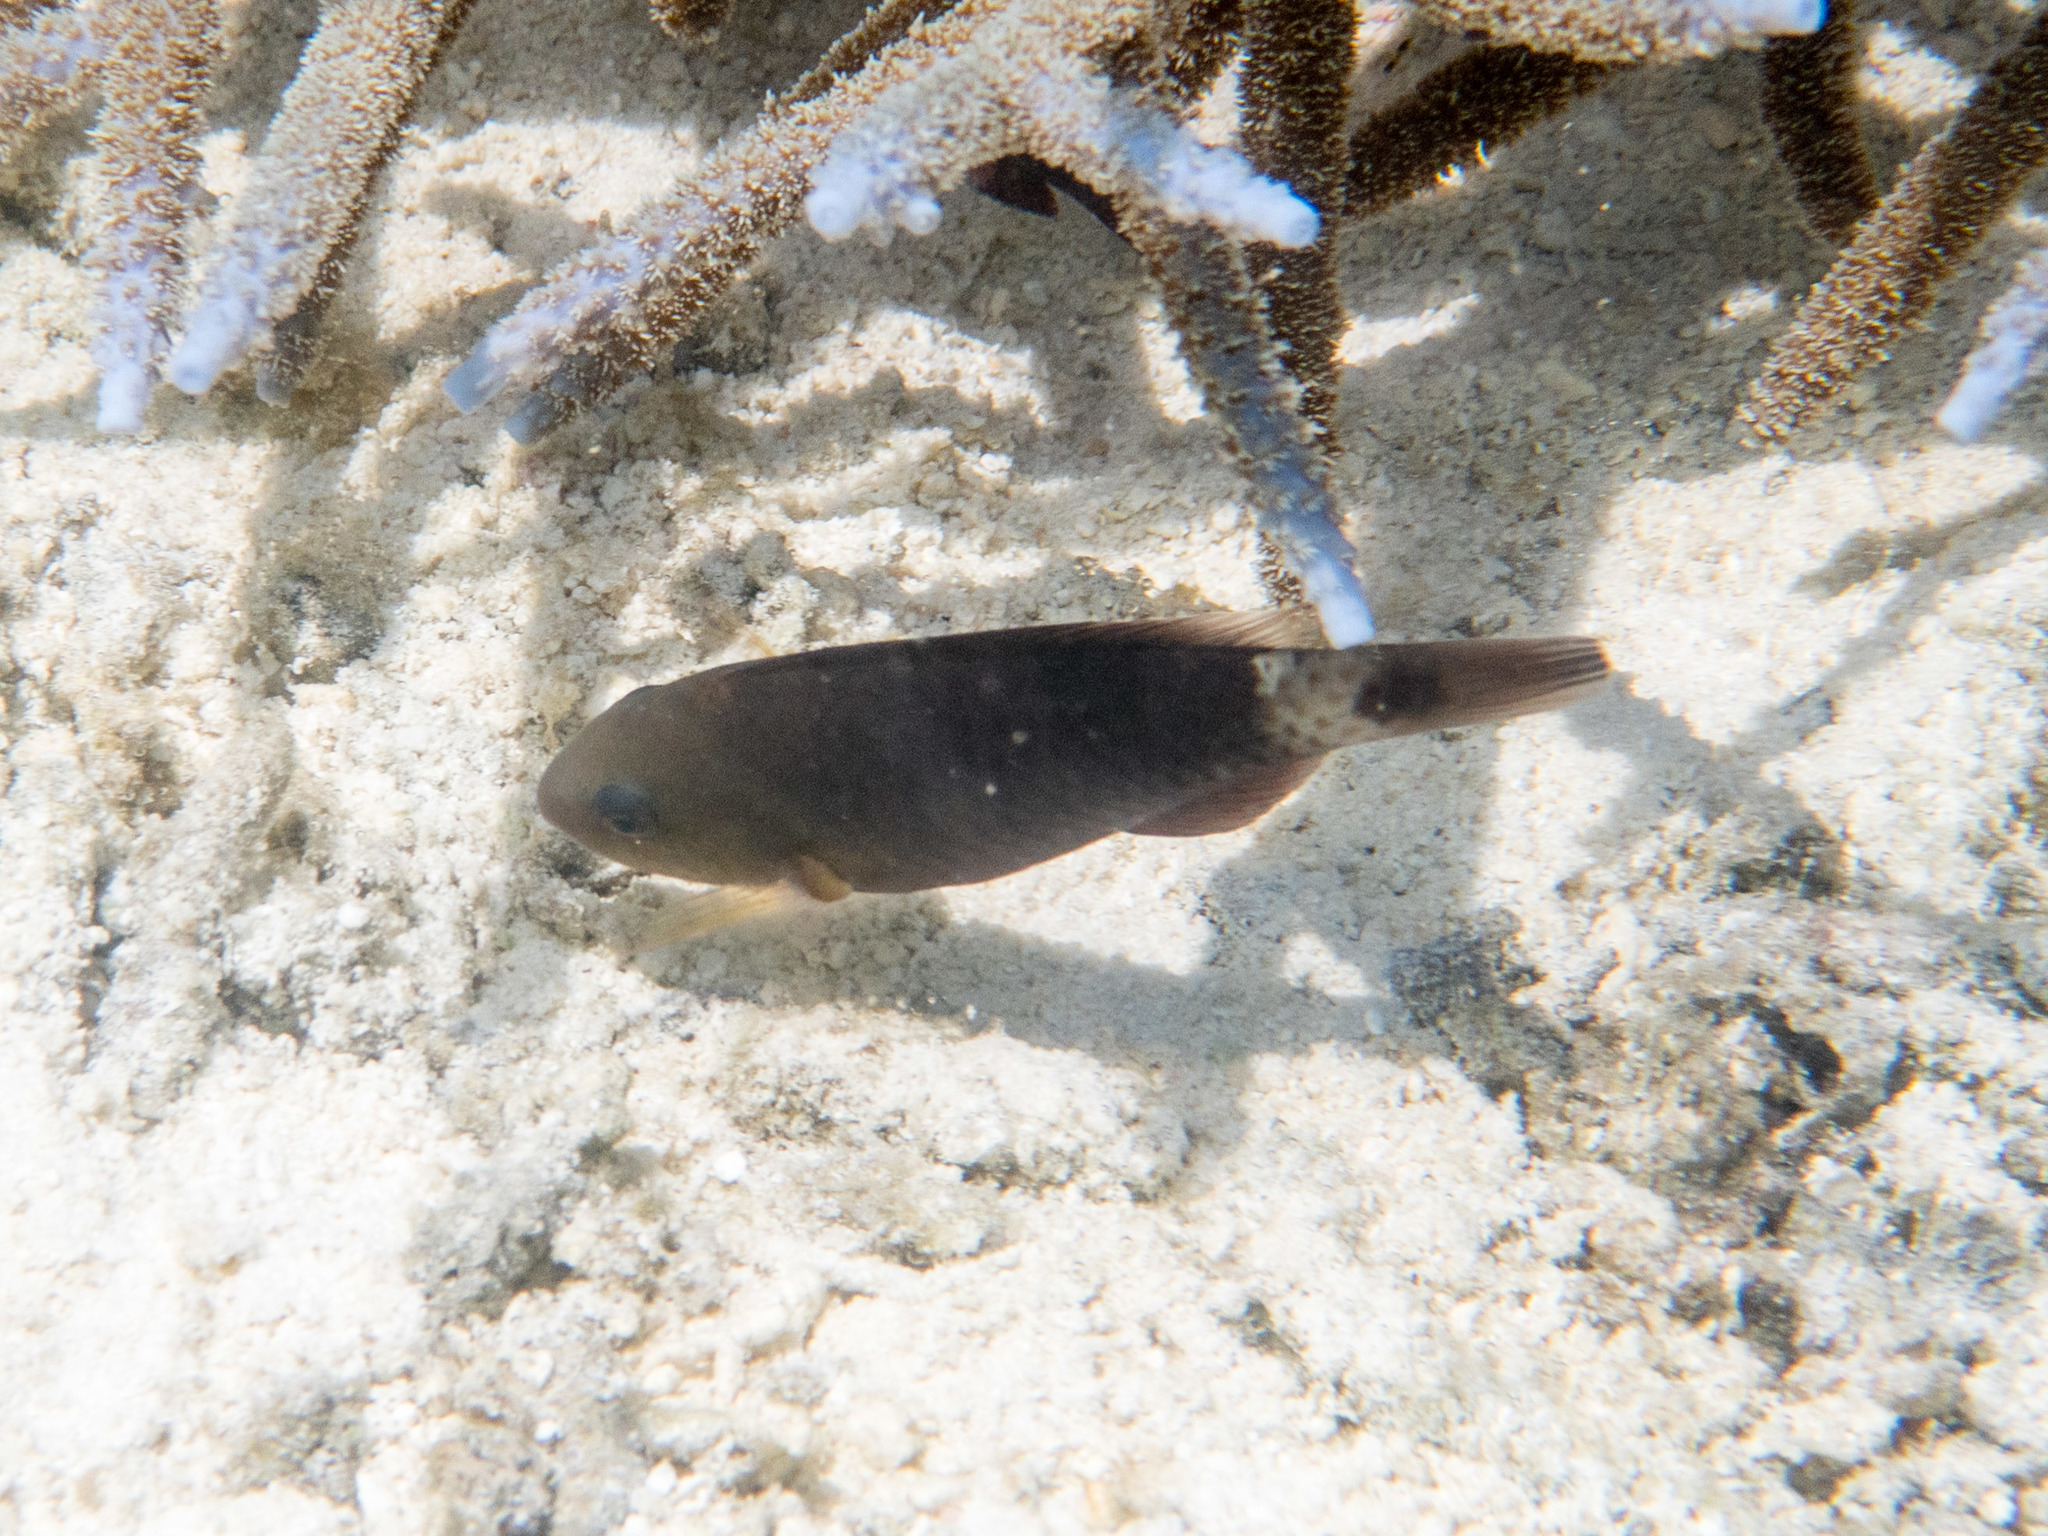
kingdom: Animalia
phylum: Chordata
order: Perciformes
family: Scaridae
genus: Chlorurus
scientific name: Chlorurus sordidus
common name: Bullethead parrotfish
